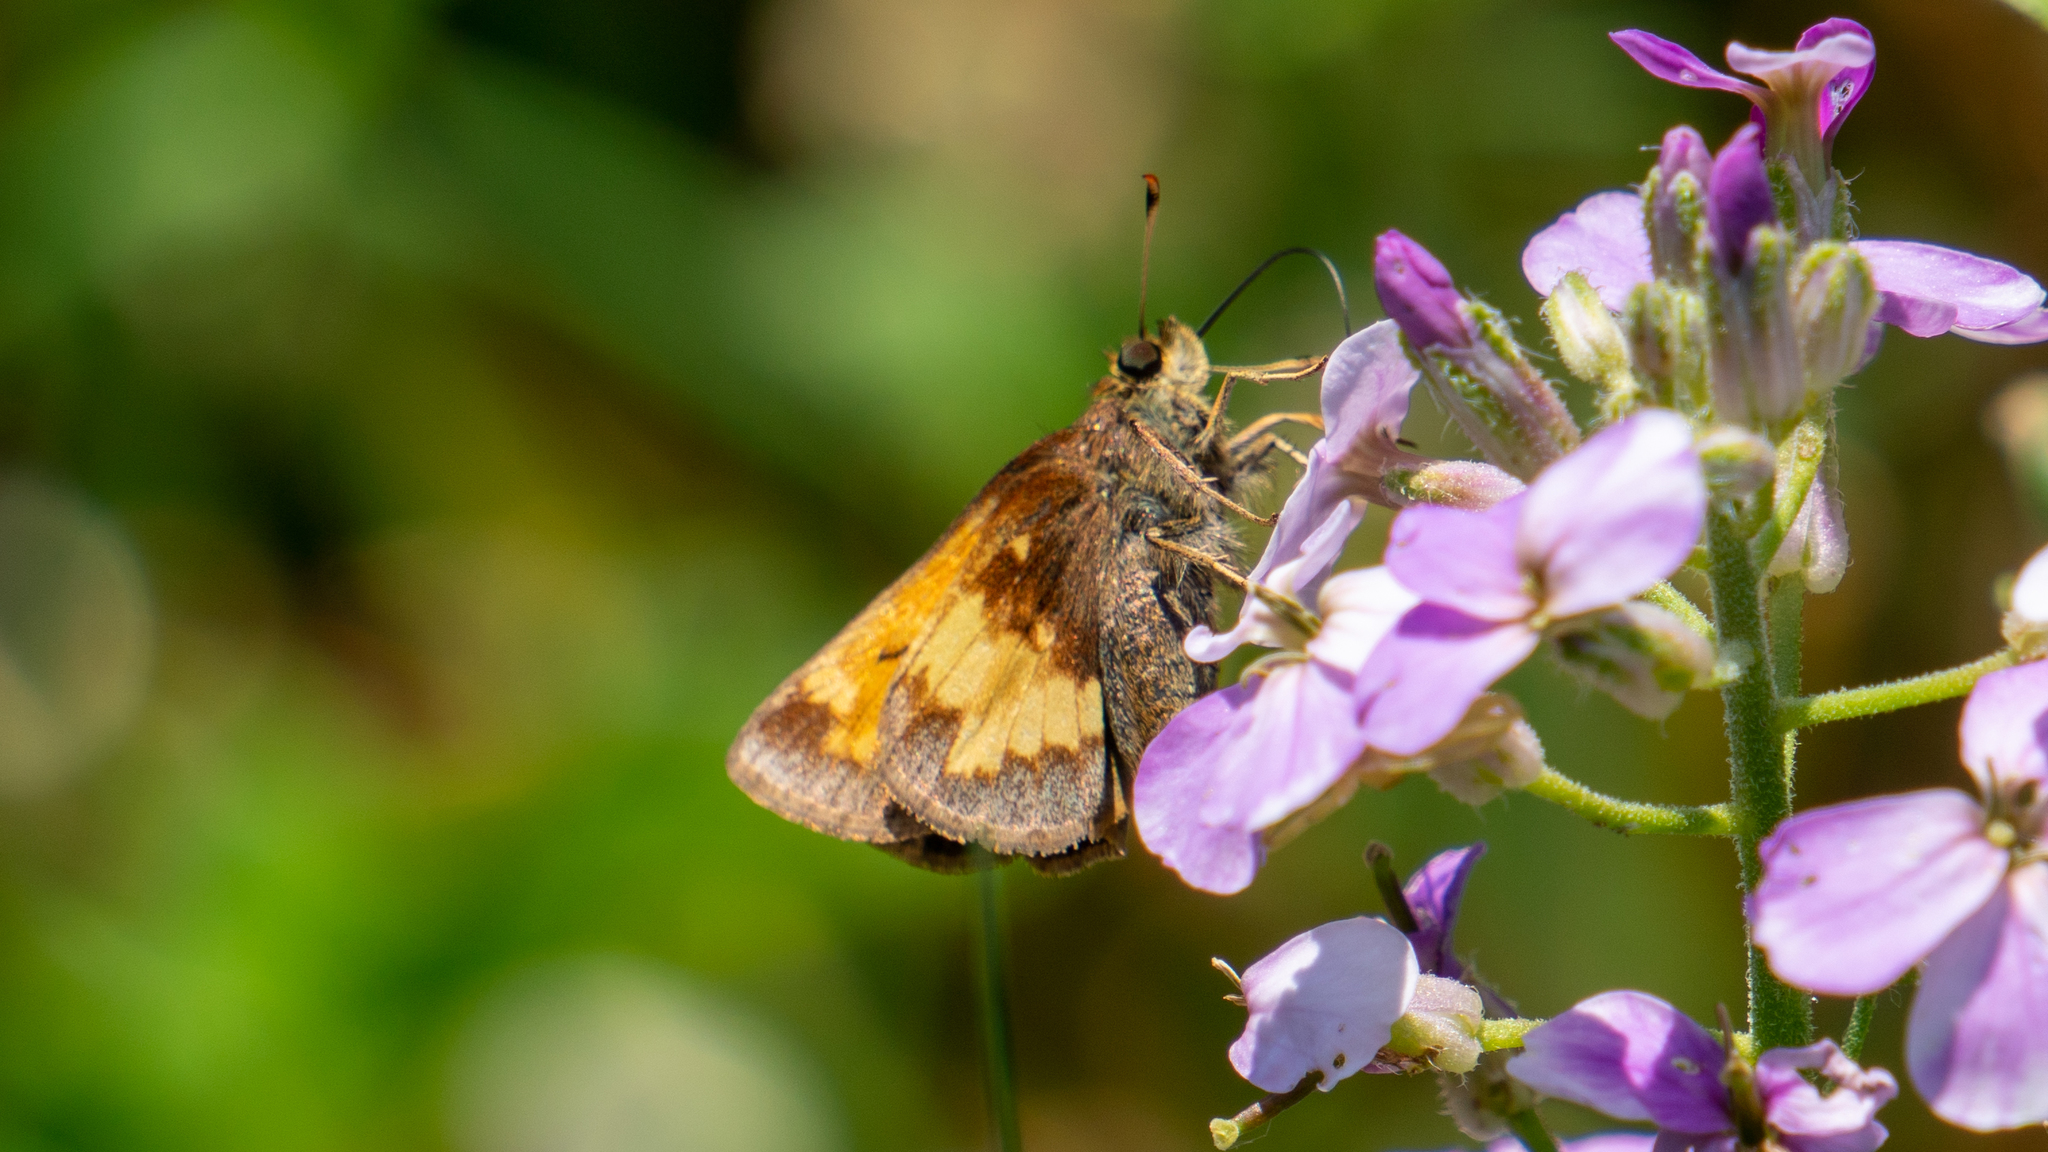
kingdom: Animalia
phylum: Arthropoda
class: Insecta
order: Lepidoptera
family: Hesperiidae
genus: Lon
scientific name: Lon hobomok
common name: Hobomok skipper
